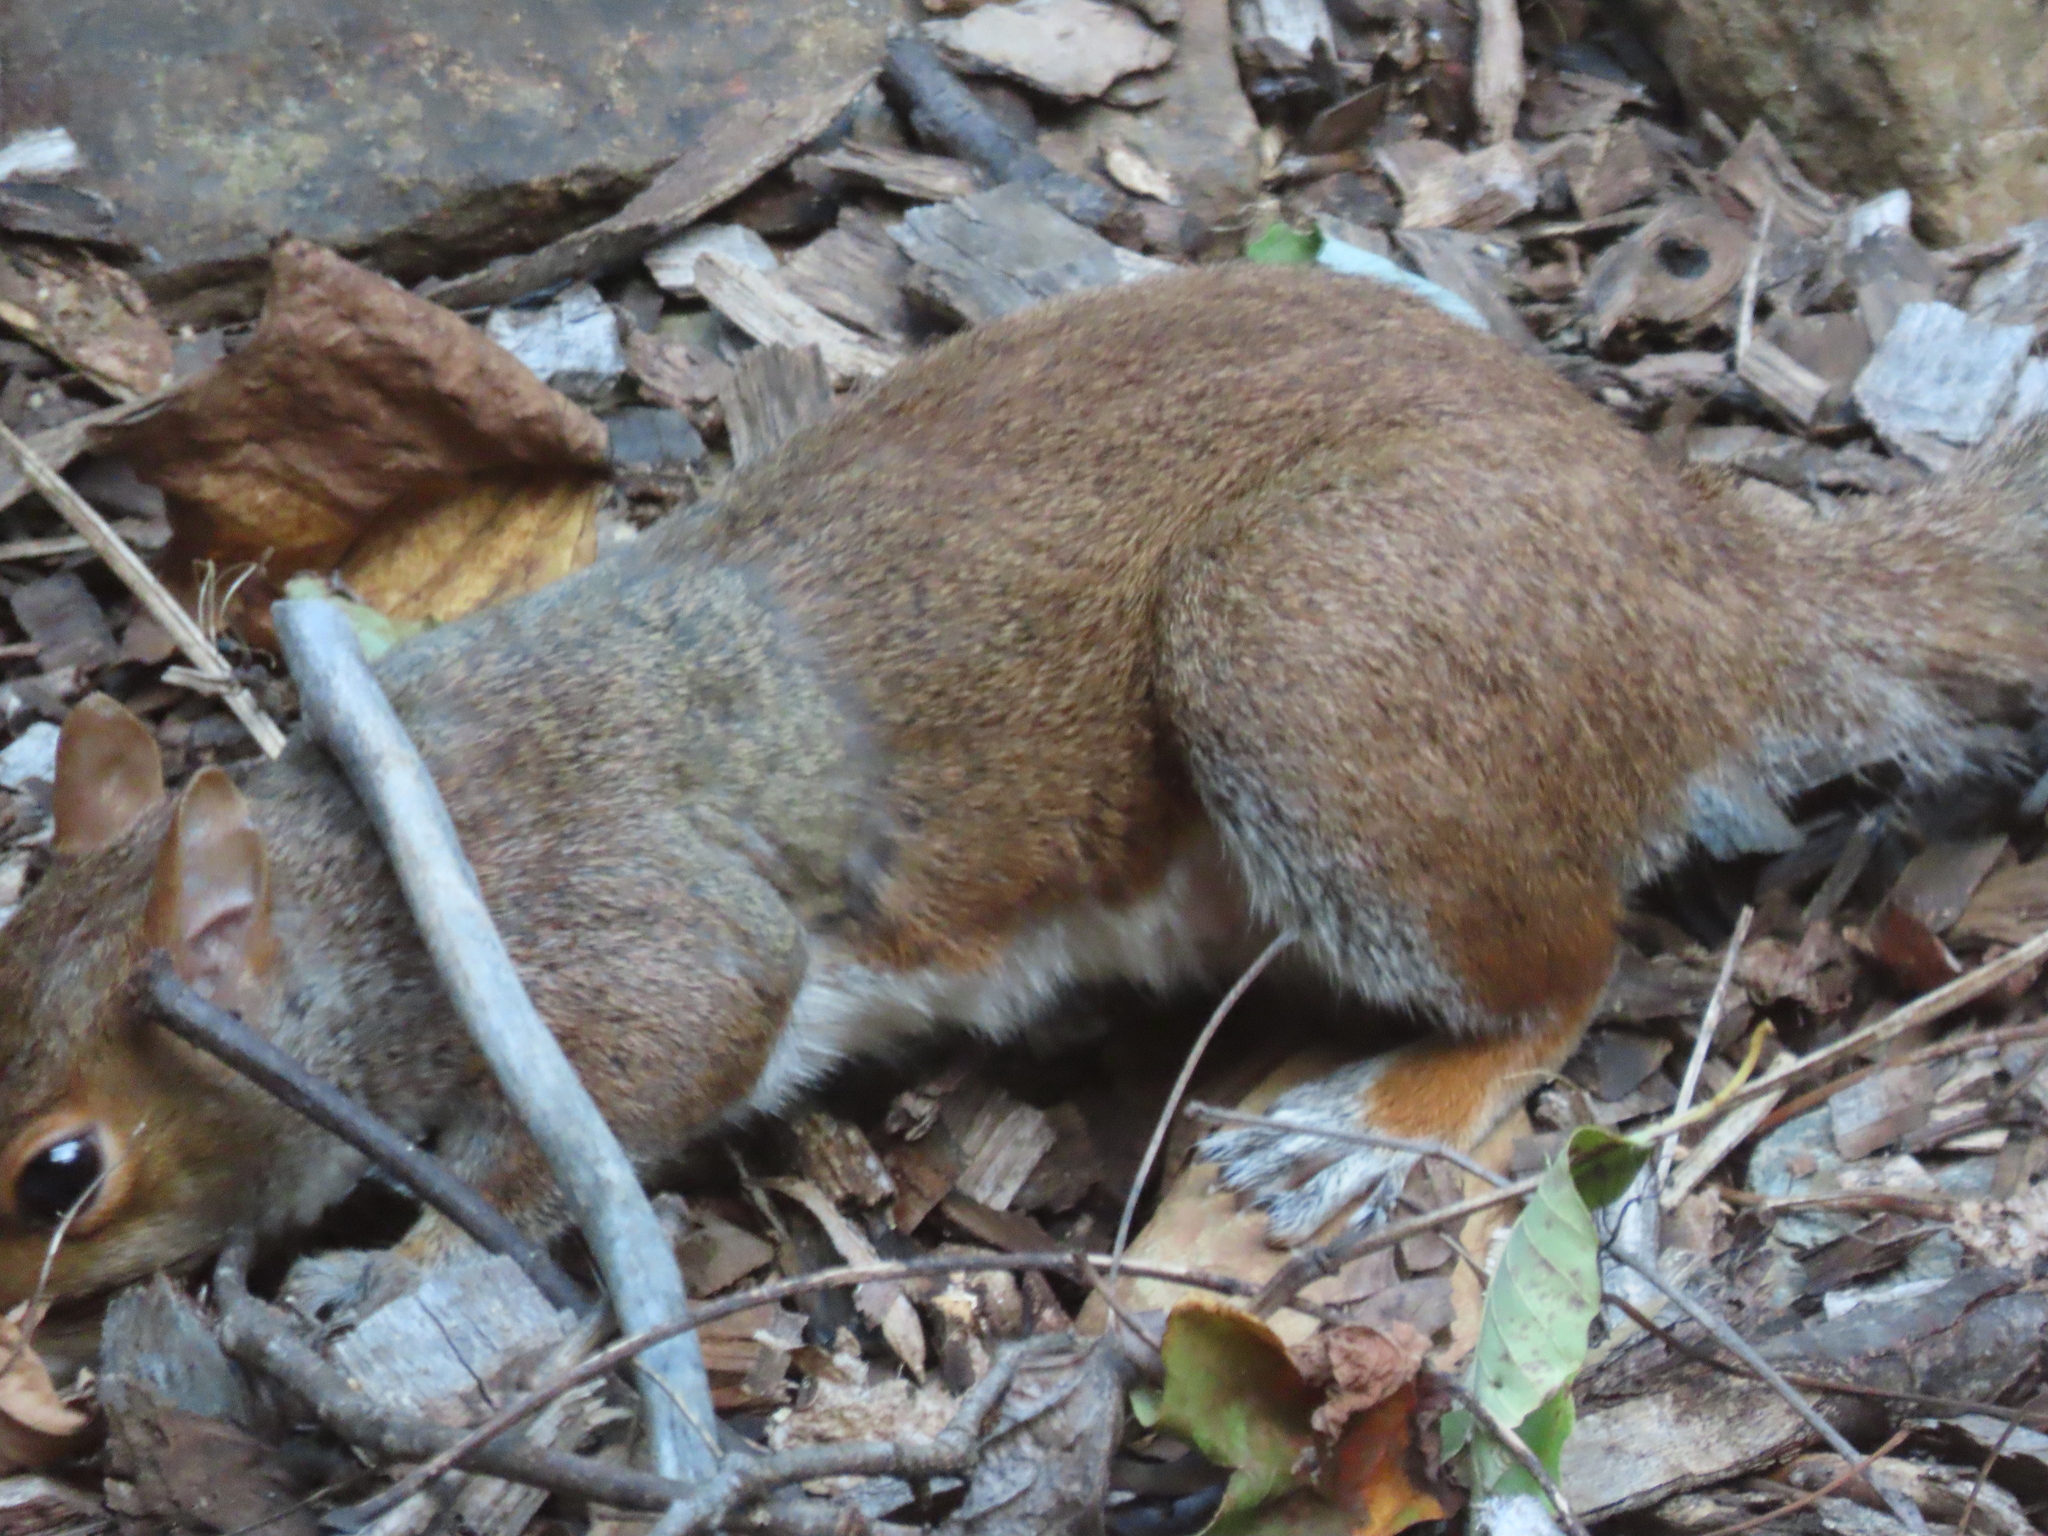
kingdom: Animalia
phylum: Chordata
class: Mammalia
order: Rodentia
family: Sciuridae
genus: Sciurus
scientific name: Sciurus carolinensis
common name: Eastern gray squirrel
